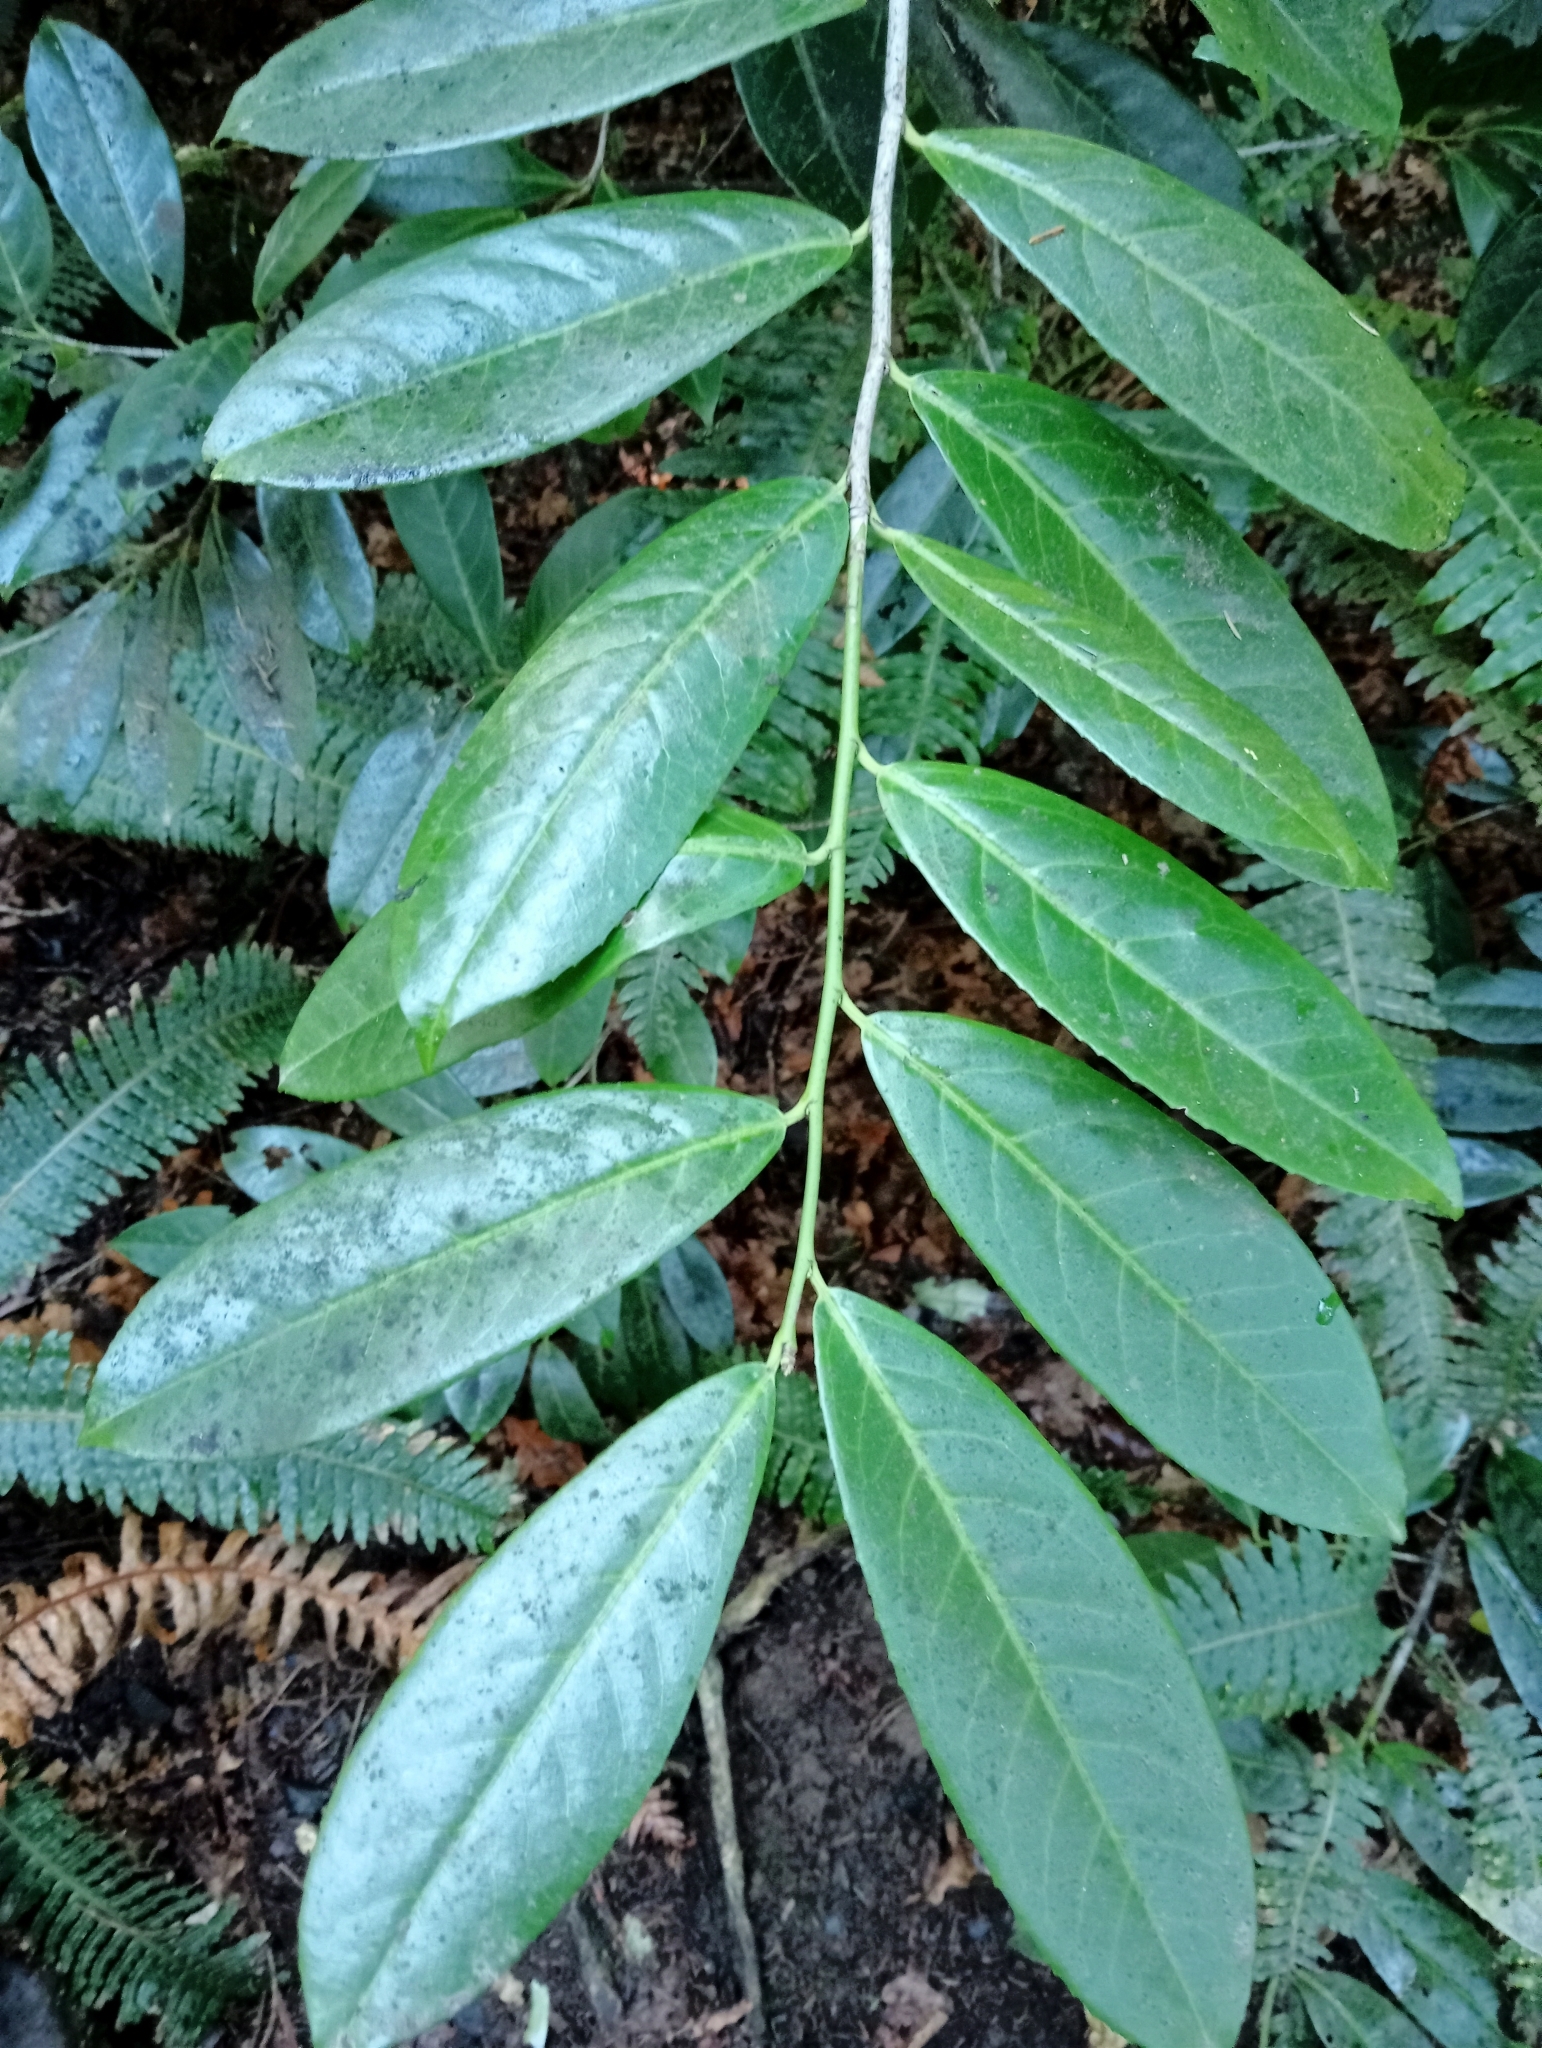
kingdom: Plantae
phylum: Tracheophyta
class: Magnoliopsida
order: Rosales
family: Rosaceae
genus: Prunus
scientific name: Prunus laurocerasus
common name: Cherry laurel
